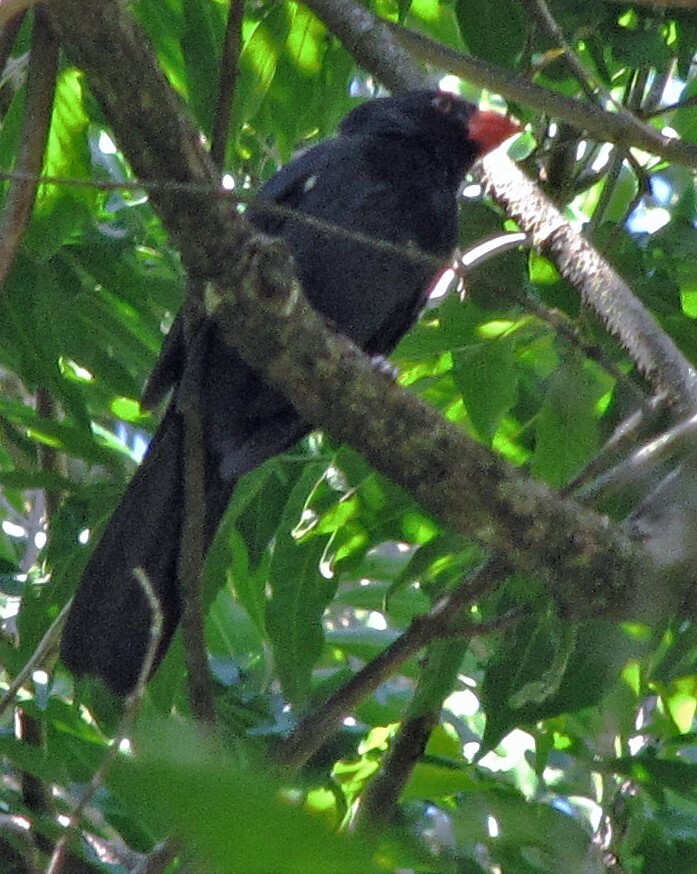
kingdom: Animalia
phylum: Chordata
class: Aves
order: Passeriformes
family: Thraupidae
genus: Saltator
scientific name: Saltator fuliginosus
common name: Black-throated grosbeak
